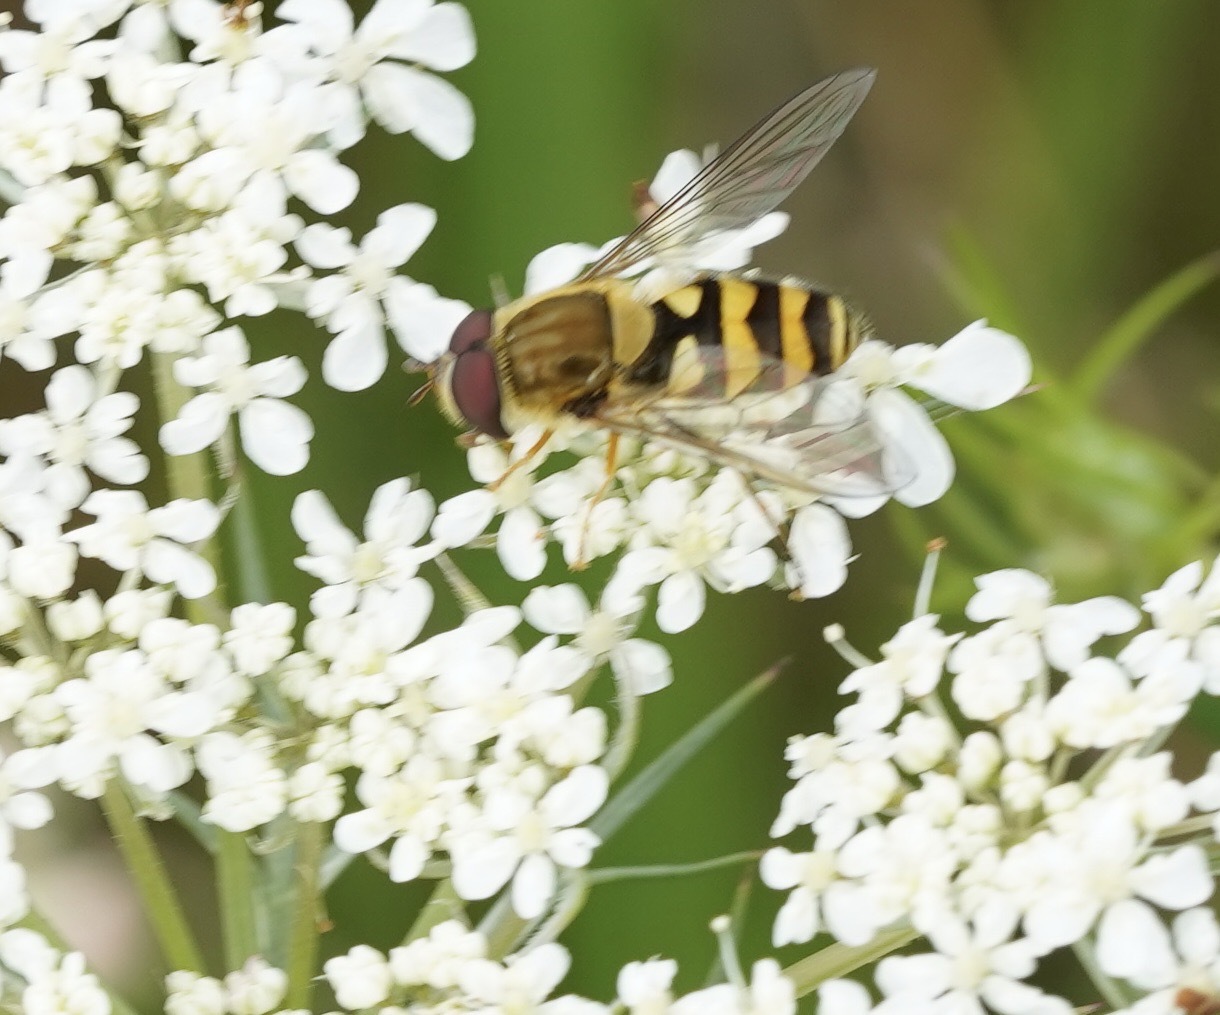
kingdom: Animalia
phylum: Arthropoda
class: Insecta
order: Diptera
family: Syrphidae
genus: Syrphus
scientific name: Syrphus
